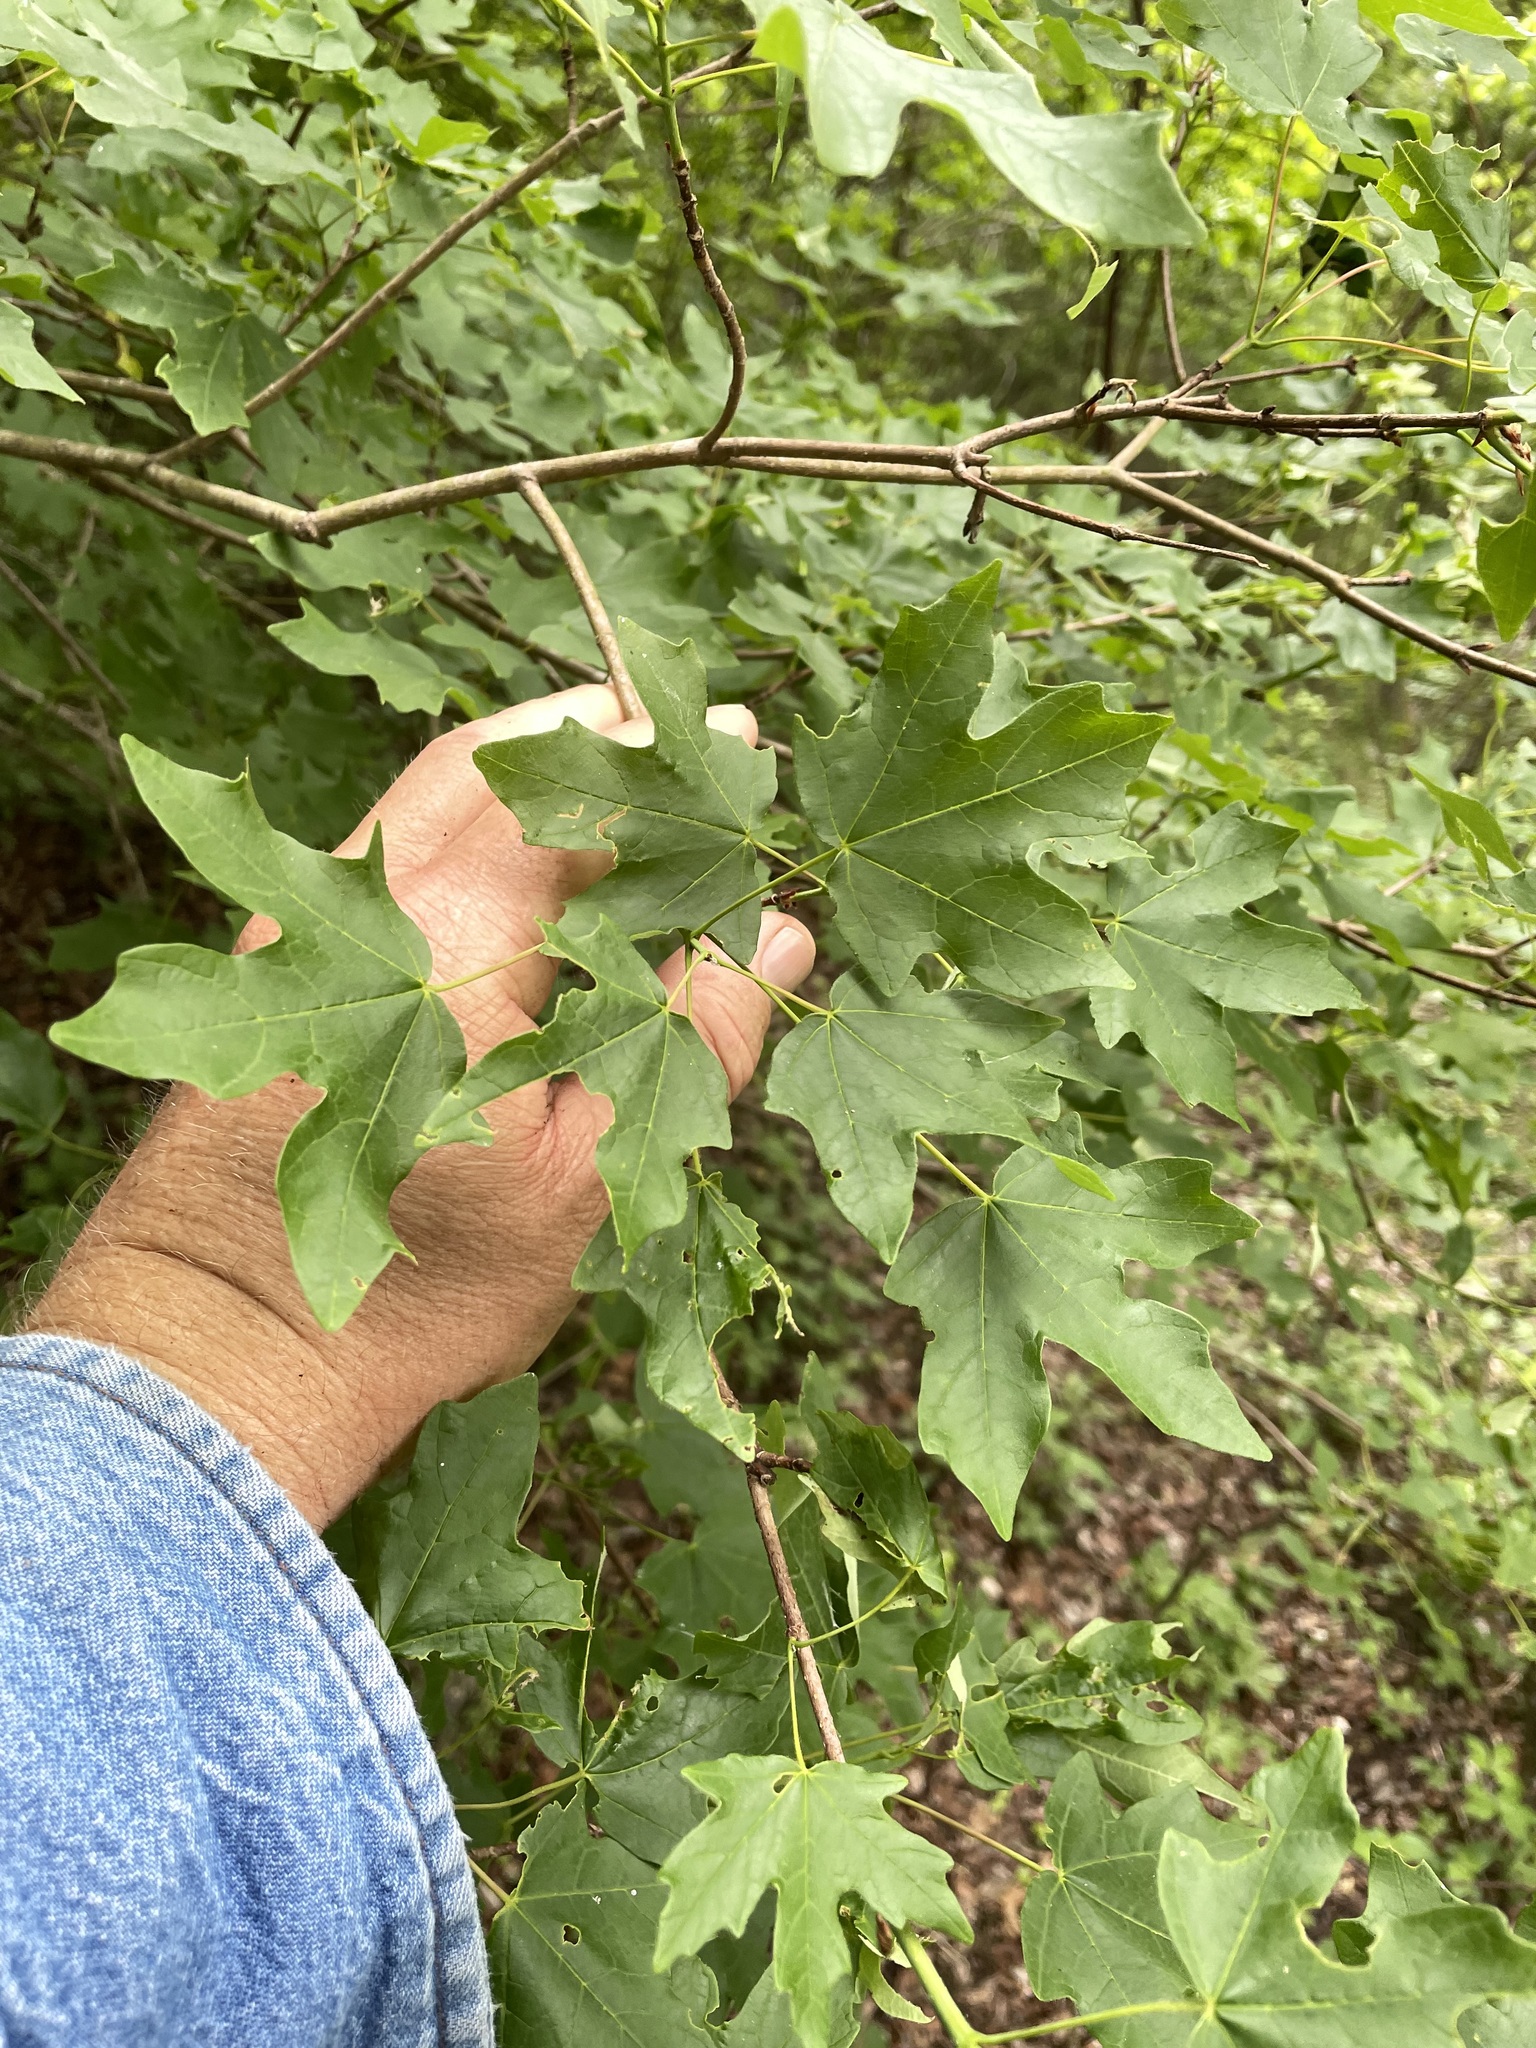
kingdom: Plantae
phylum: Tracheophyta
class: Magnoliopsida
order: Sapindales
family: Sapindaceae
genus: Acer
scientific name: Acer grandidentatum
